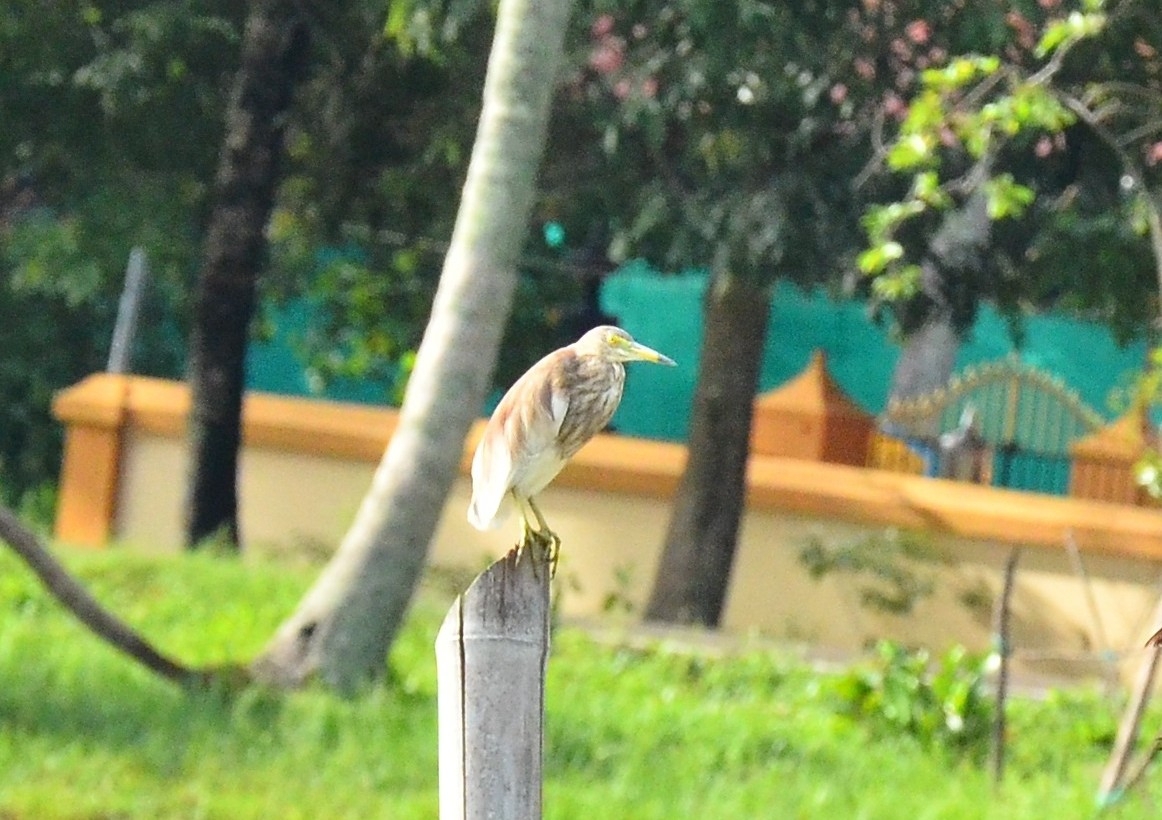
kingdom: Animalia
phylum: Chordata
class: Aves
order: Pelecaniformes
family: Ardeidae
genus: Ardeola
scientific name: Ardeola grayii
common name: Indian pond heron
